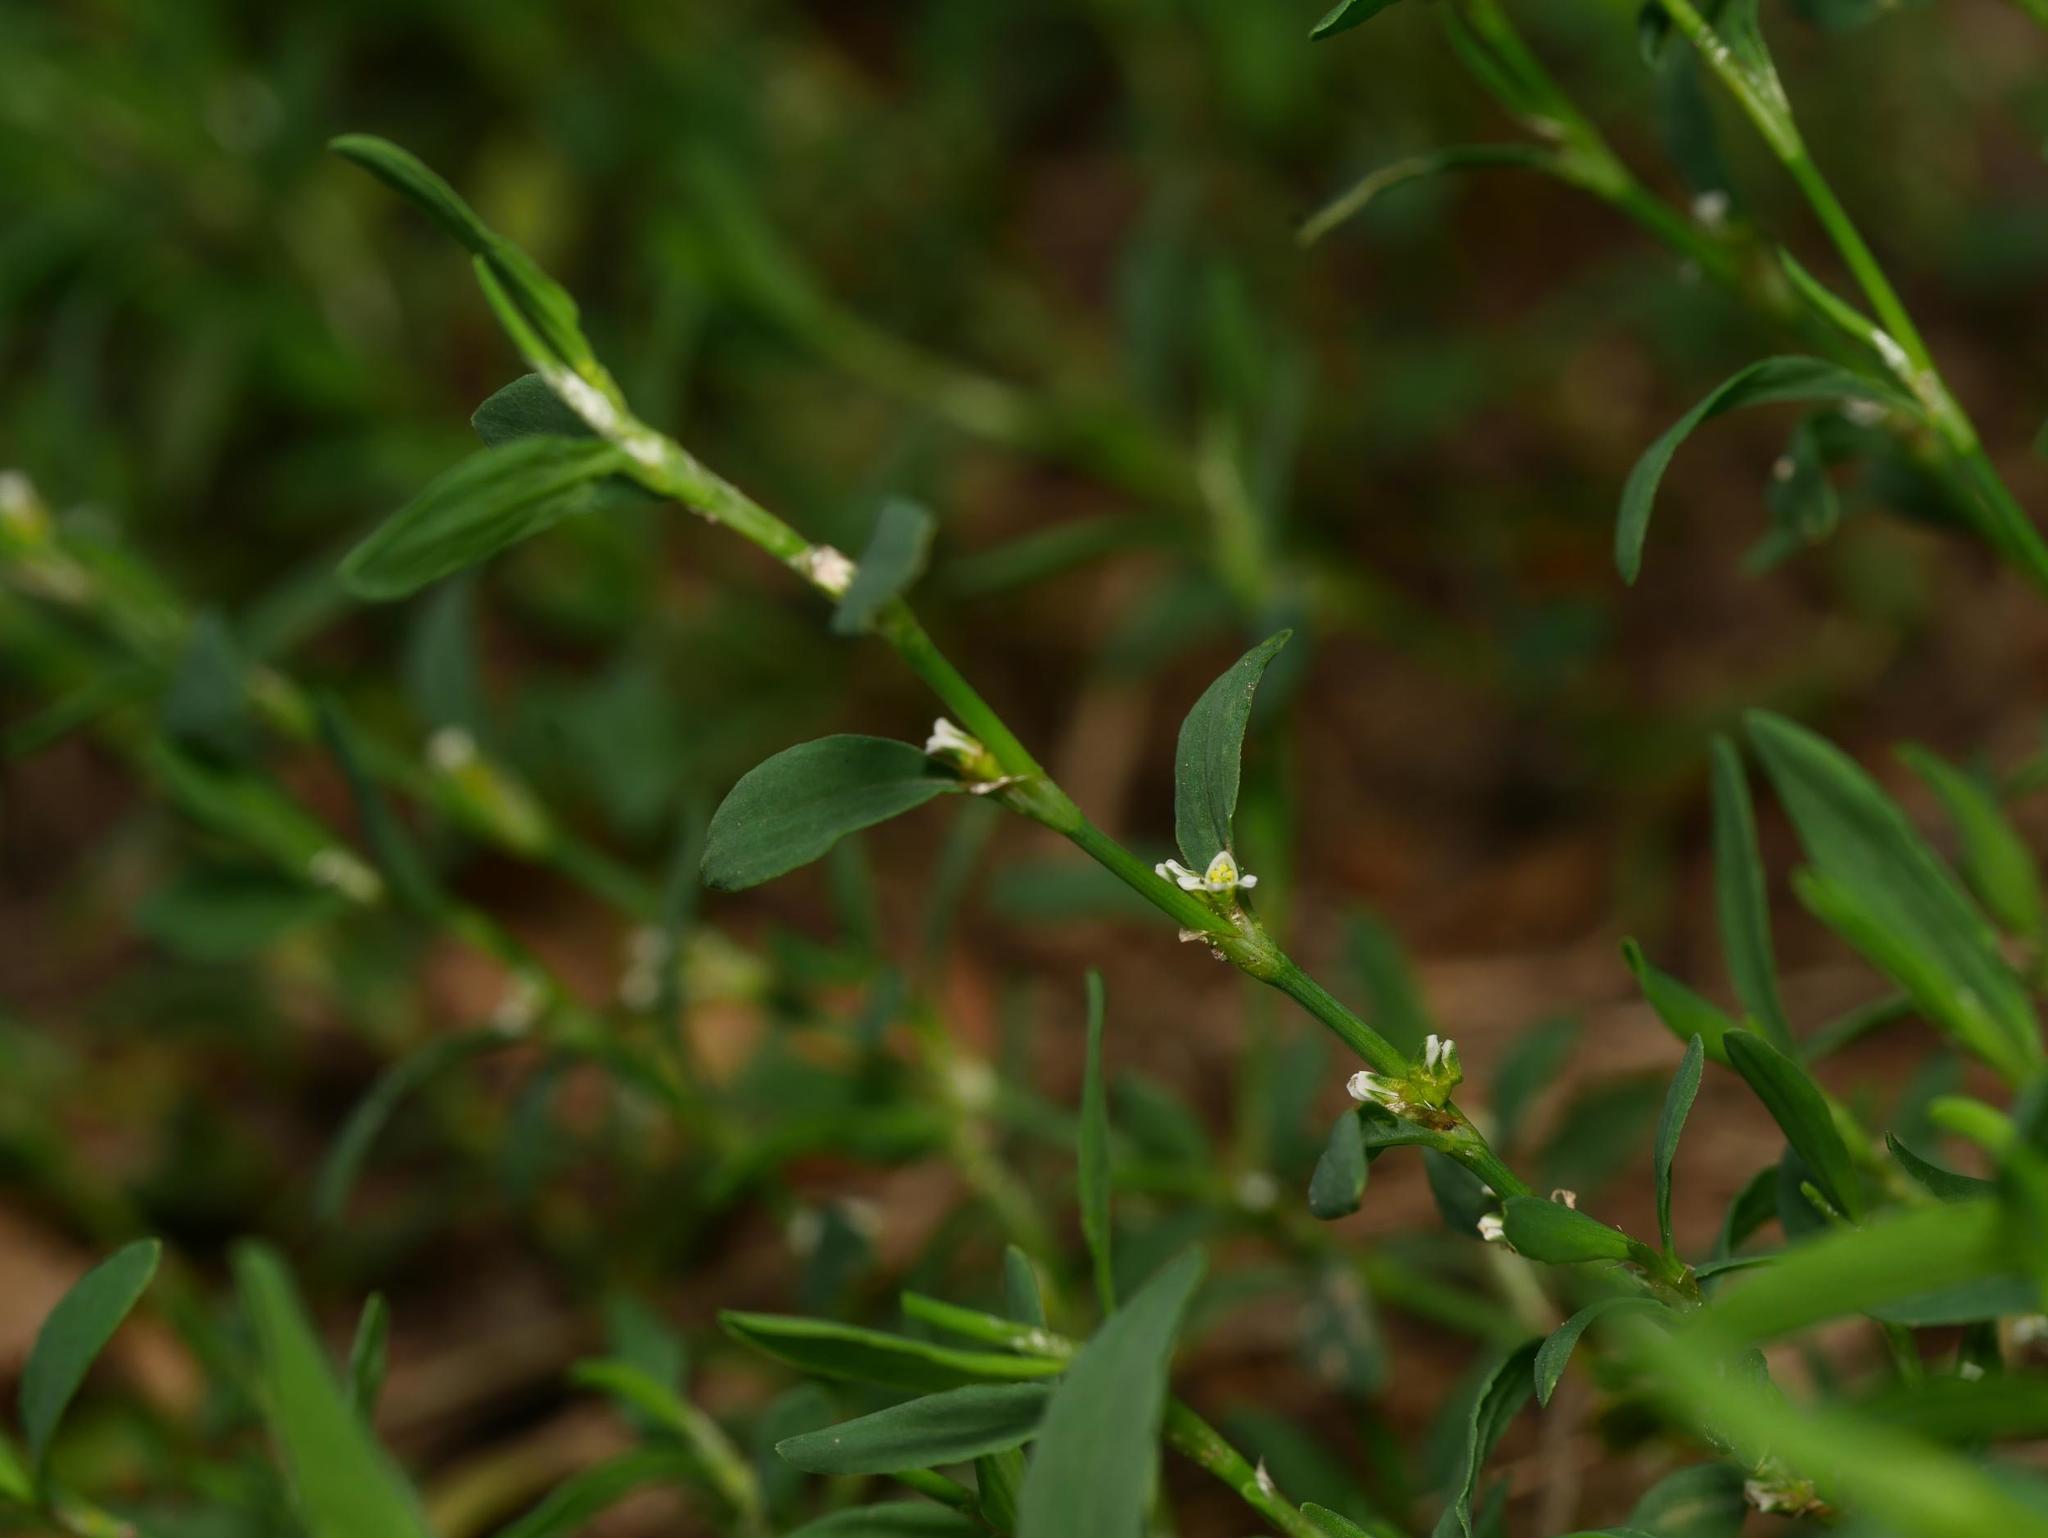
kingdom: Plantae
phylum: Tracheophyta
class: Magnoliopsida
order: Caryophyllales
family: Polygonaceae
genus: Polygonum
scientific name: Polygonum aviculare
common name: Prostrate knotweed
